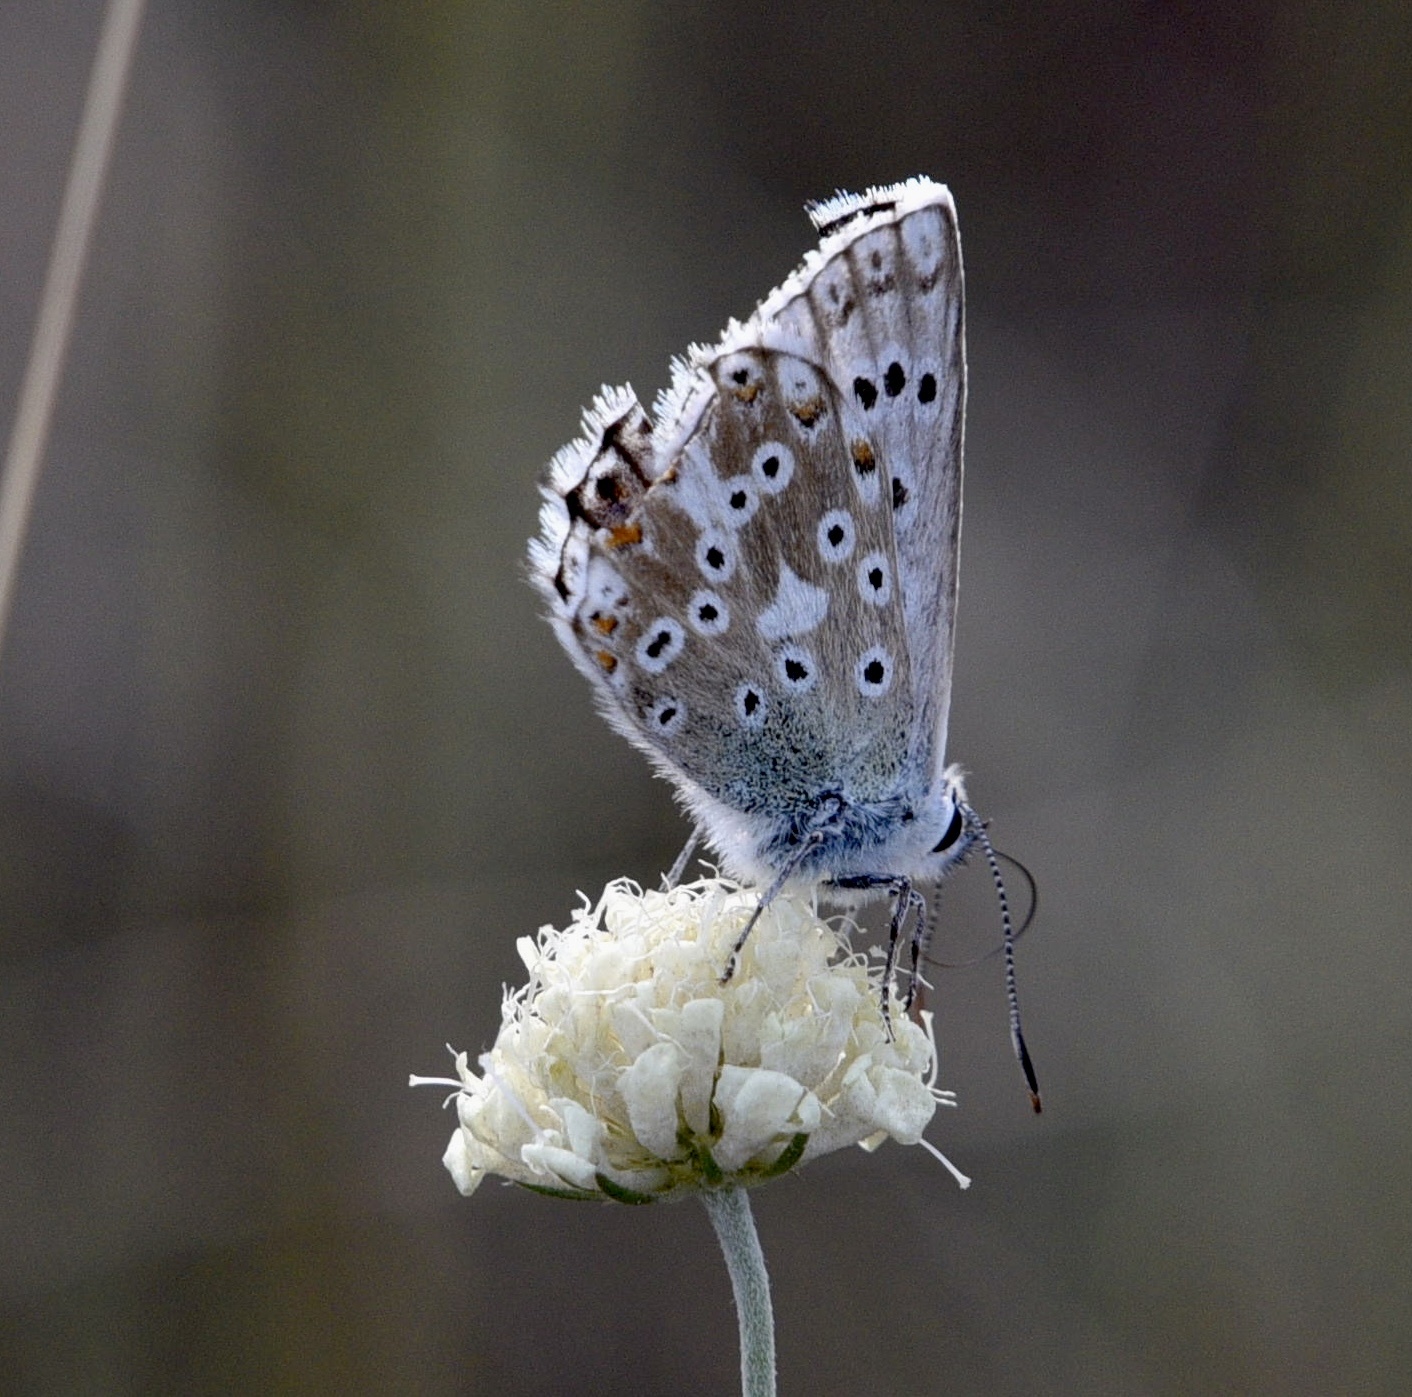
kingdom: Animalia
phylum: Arthropoda
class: Insecta
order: Lepidoptera
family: Lycaenidae
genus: Lysandra
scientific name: Lysandra coridon
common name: Chalkhill blue
